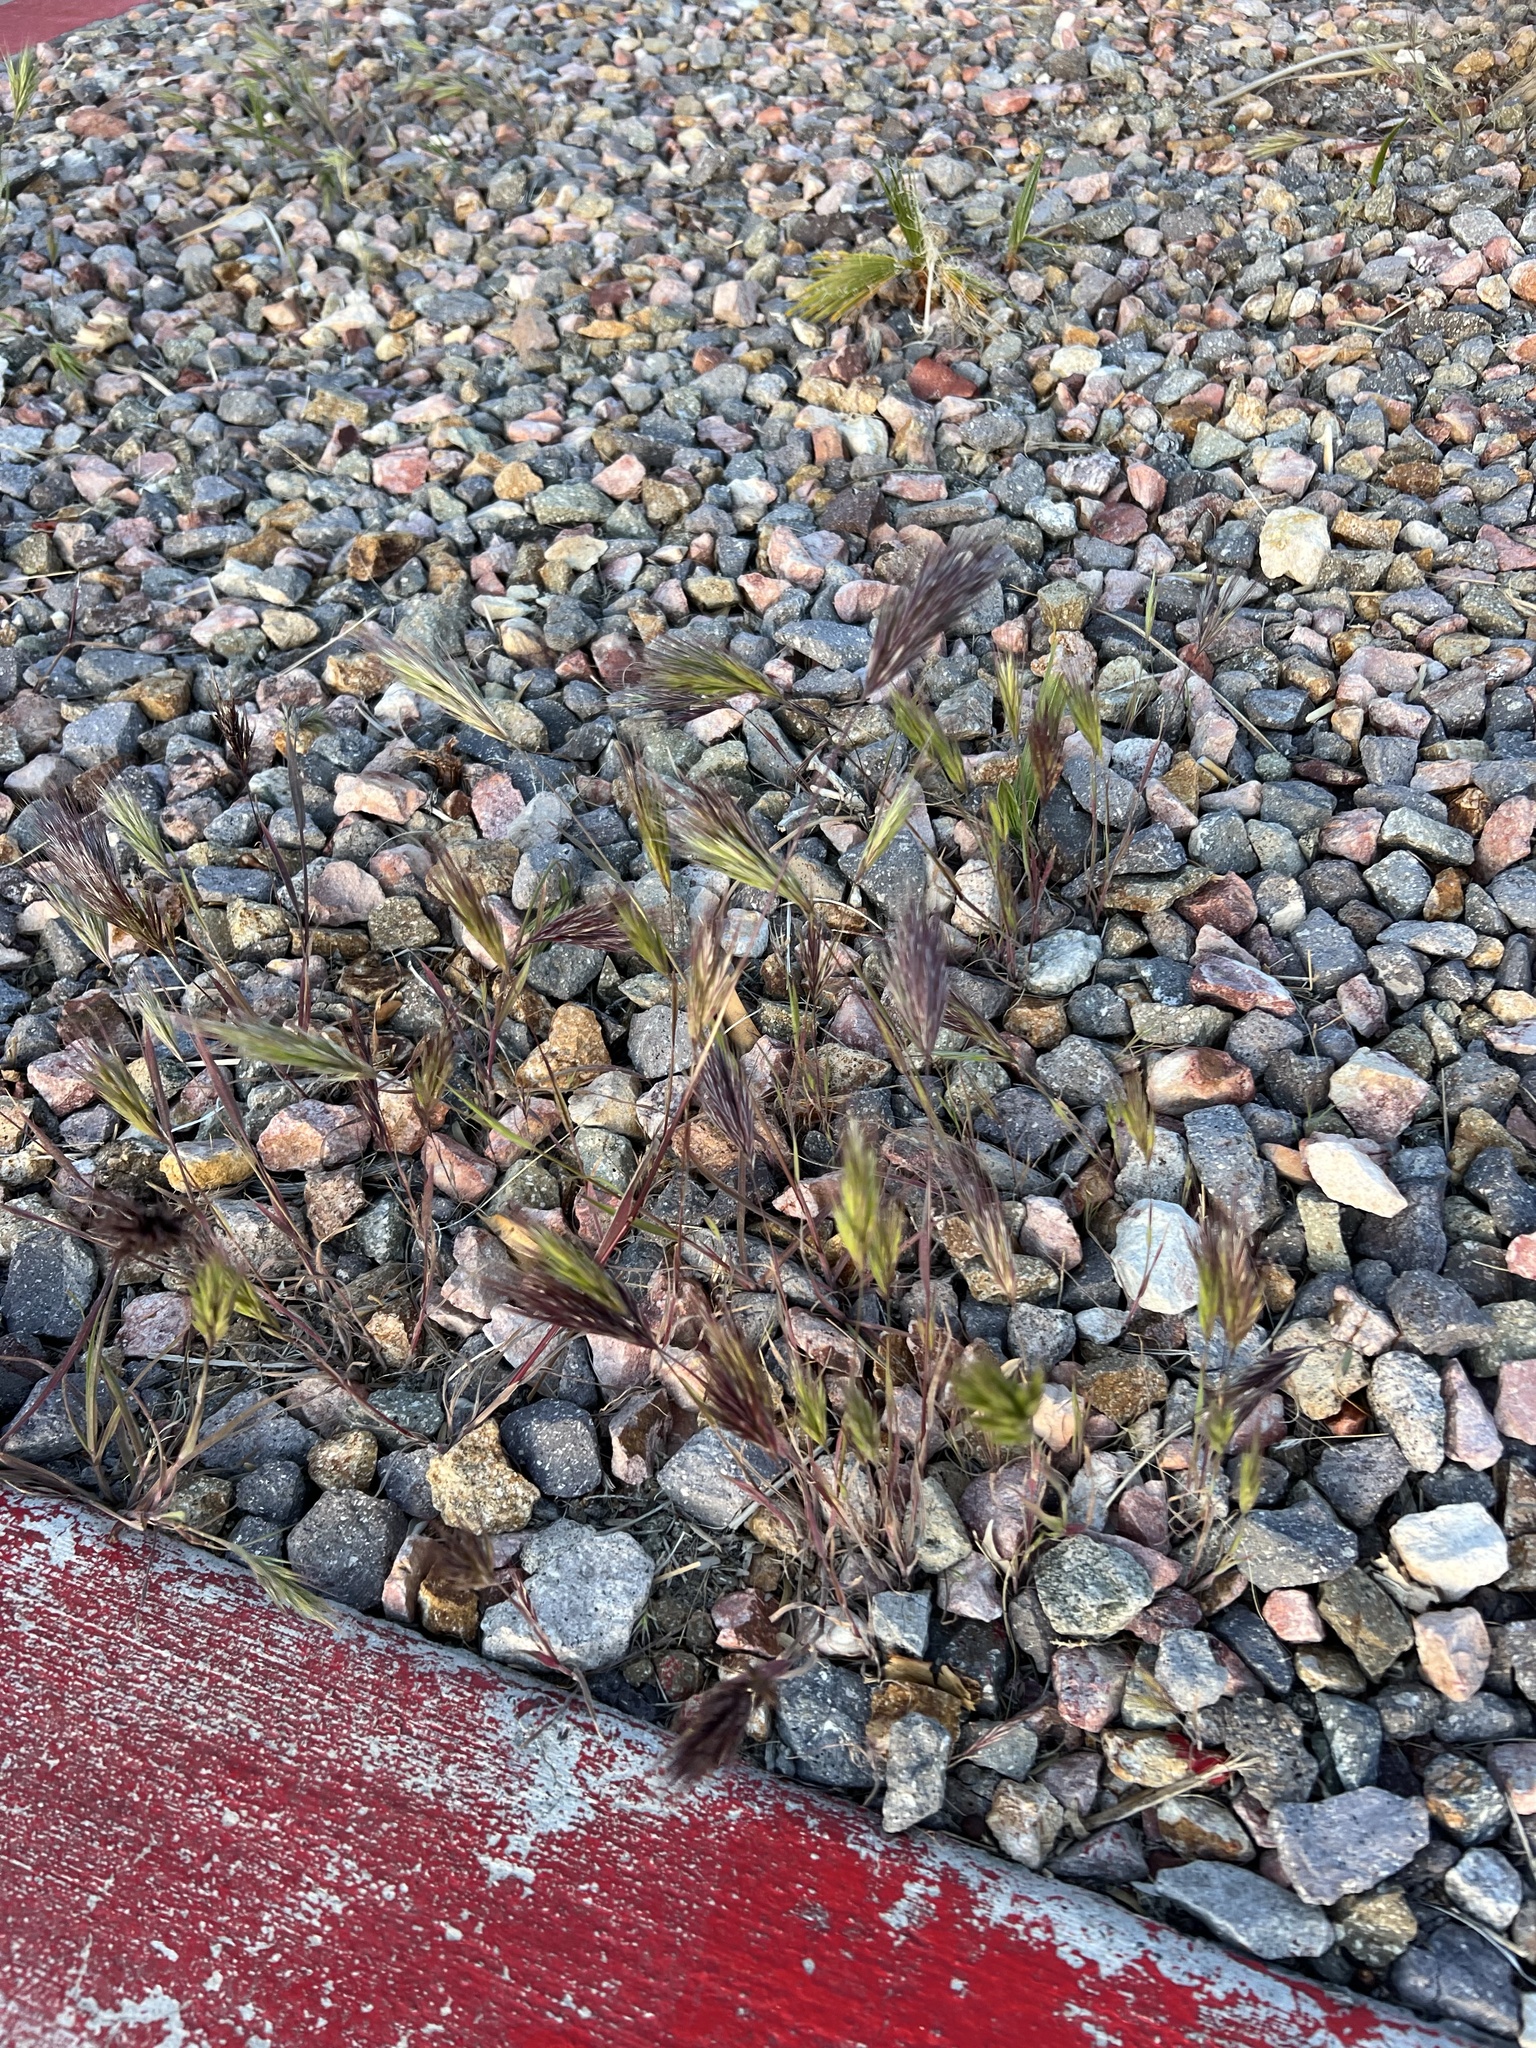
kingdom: Plantae
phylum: Tracheophyta
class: Liliopsida
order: Poales
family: Poaceae
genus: Bromus
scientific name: Bromus rubens
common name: Red brome
